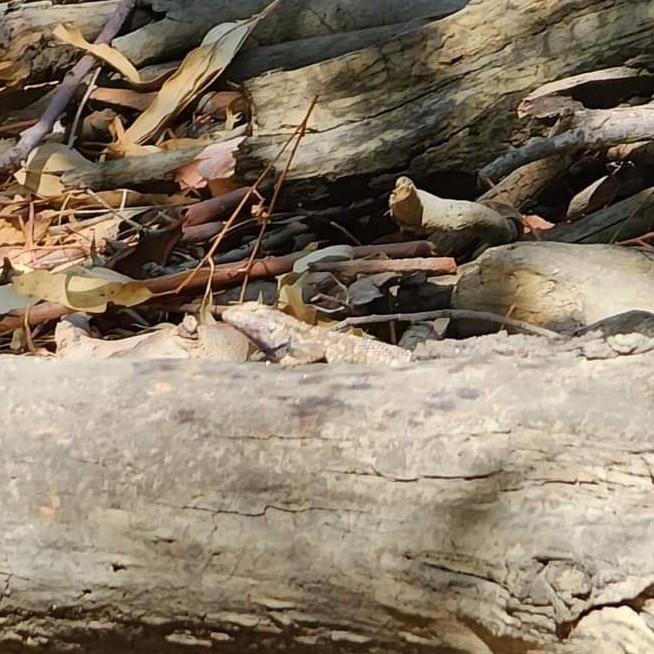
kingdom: Animalia
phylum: Chordata
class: Squamata
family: Phrynosomatidae
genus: Sceloporus
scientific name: Sceloporus occidentalis
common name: Western fence lizard
